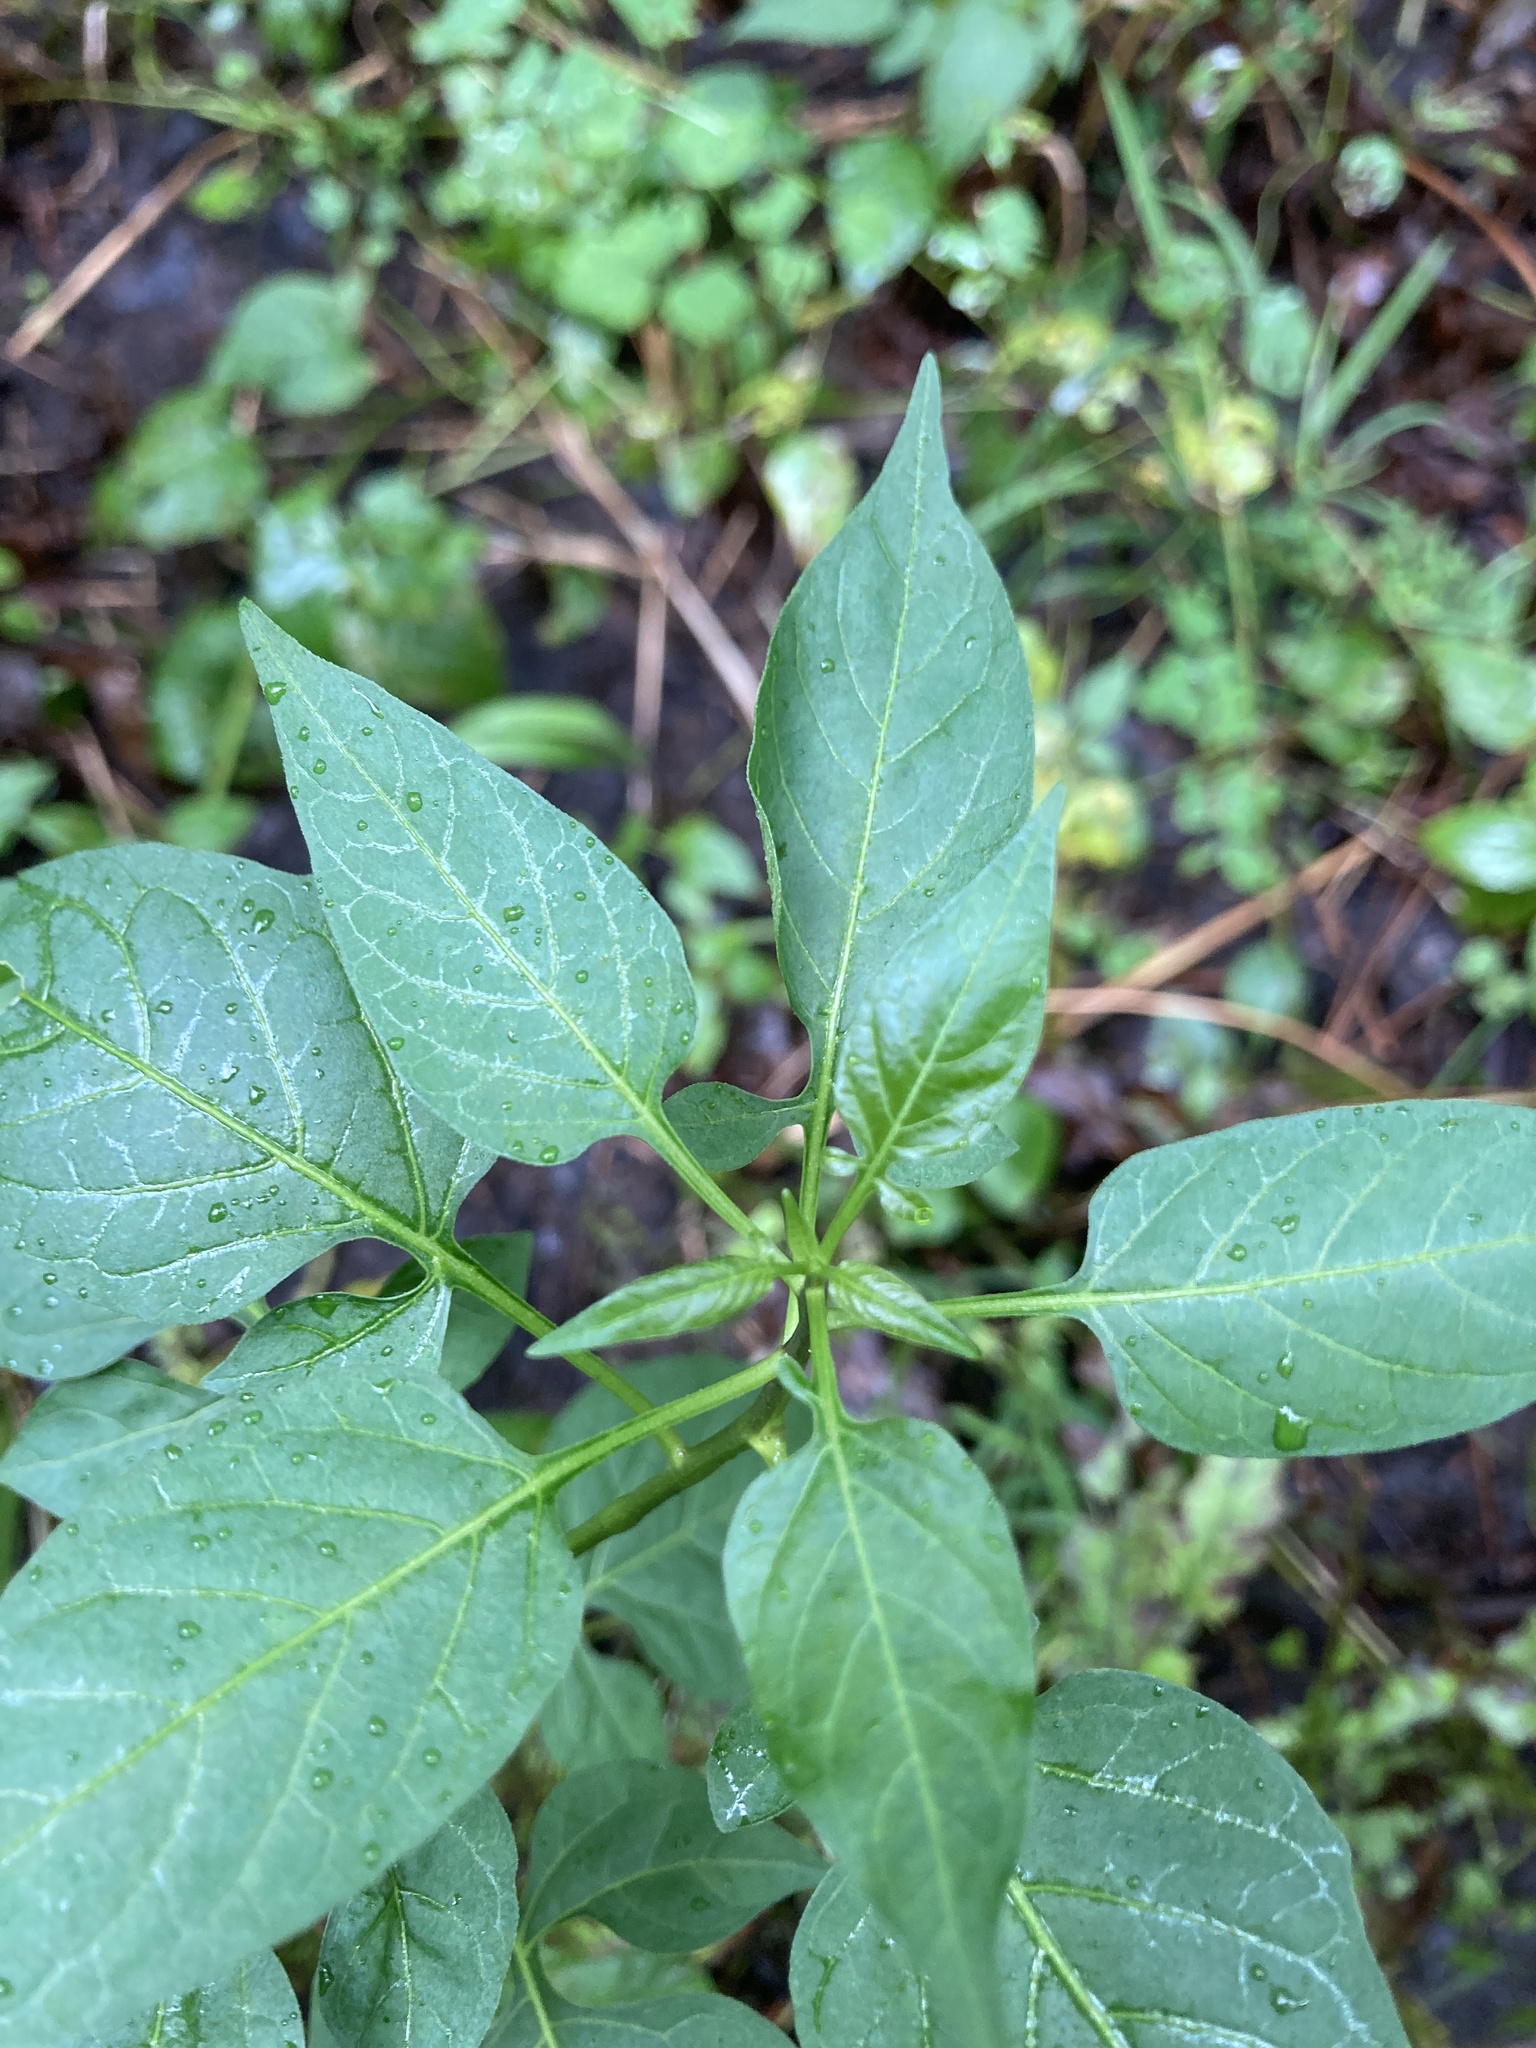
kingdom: Plantae
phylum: Tracheophyta
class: Magnoliopsida
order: Solanales
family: Solanaceae
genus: Solanum
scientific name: Solanum dulcamara
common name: Climbing nightshade
